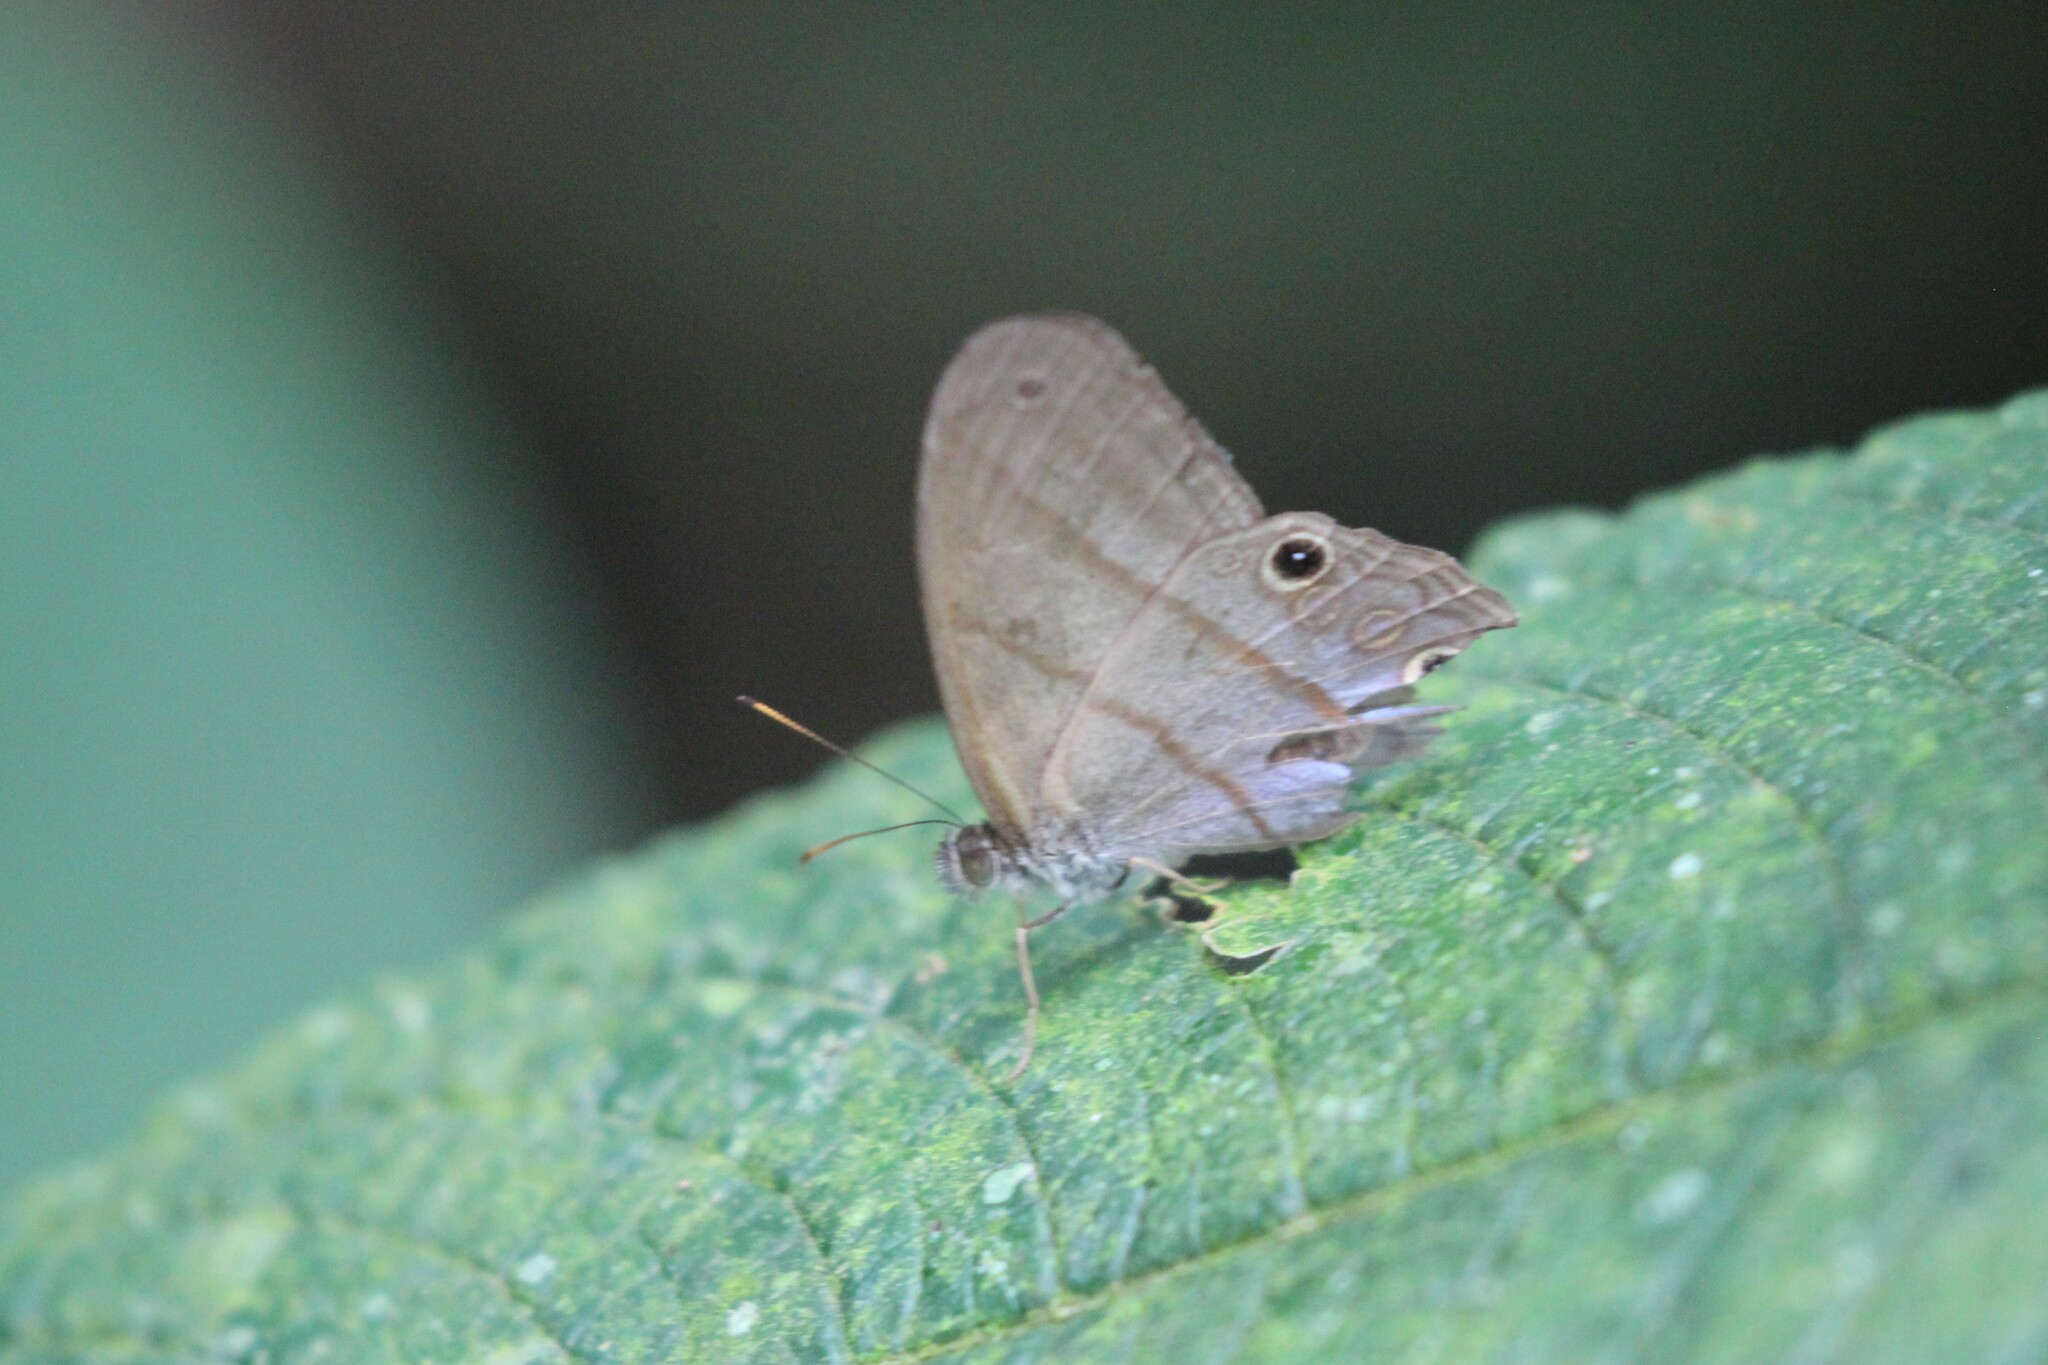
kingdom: Animalia
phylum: Arthropoda
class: Insecta
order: Lepidoptera
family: Nymphalidae
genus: Amiga
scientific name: Amiga arnaca
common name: Blue-topped satyr
